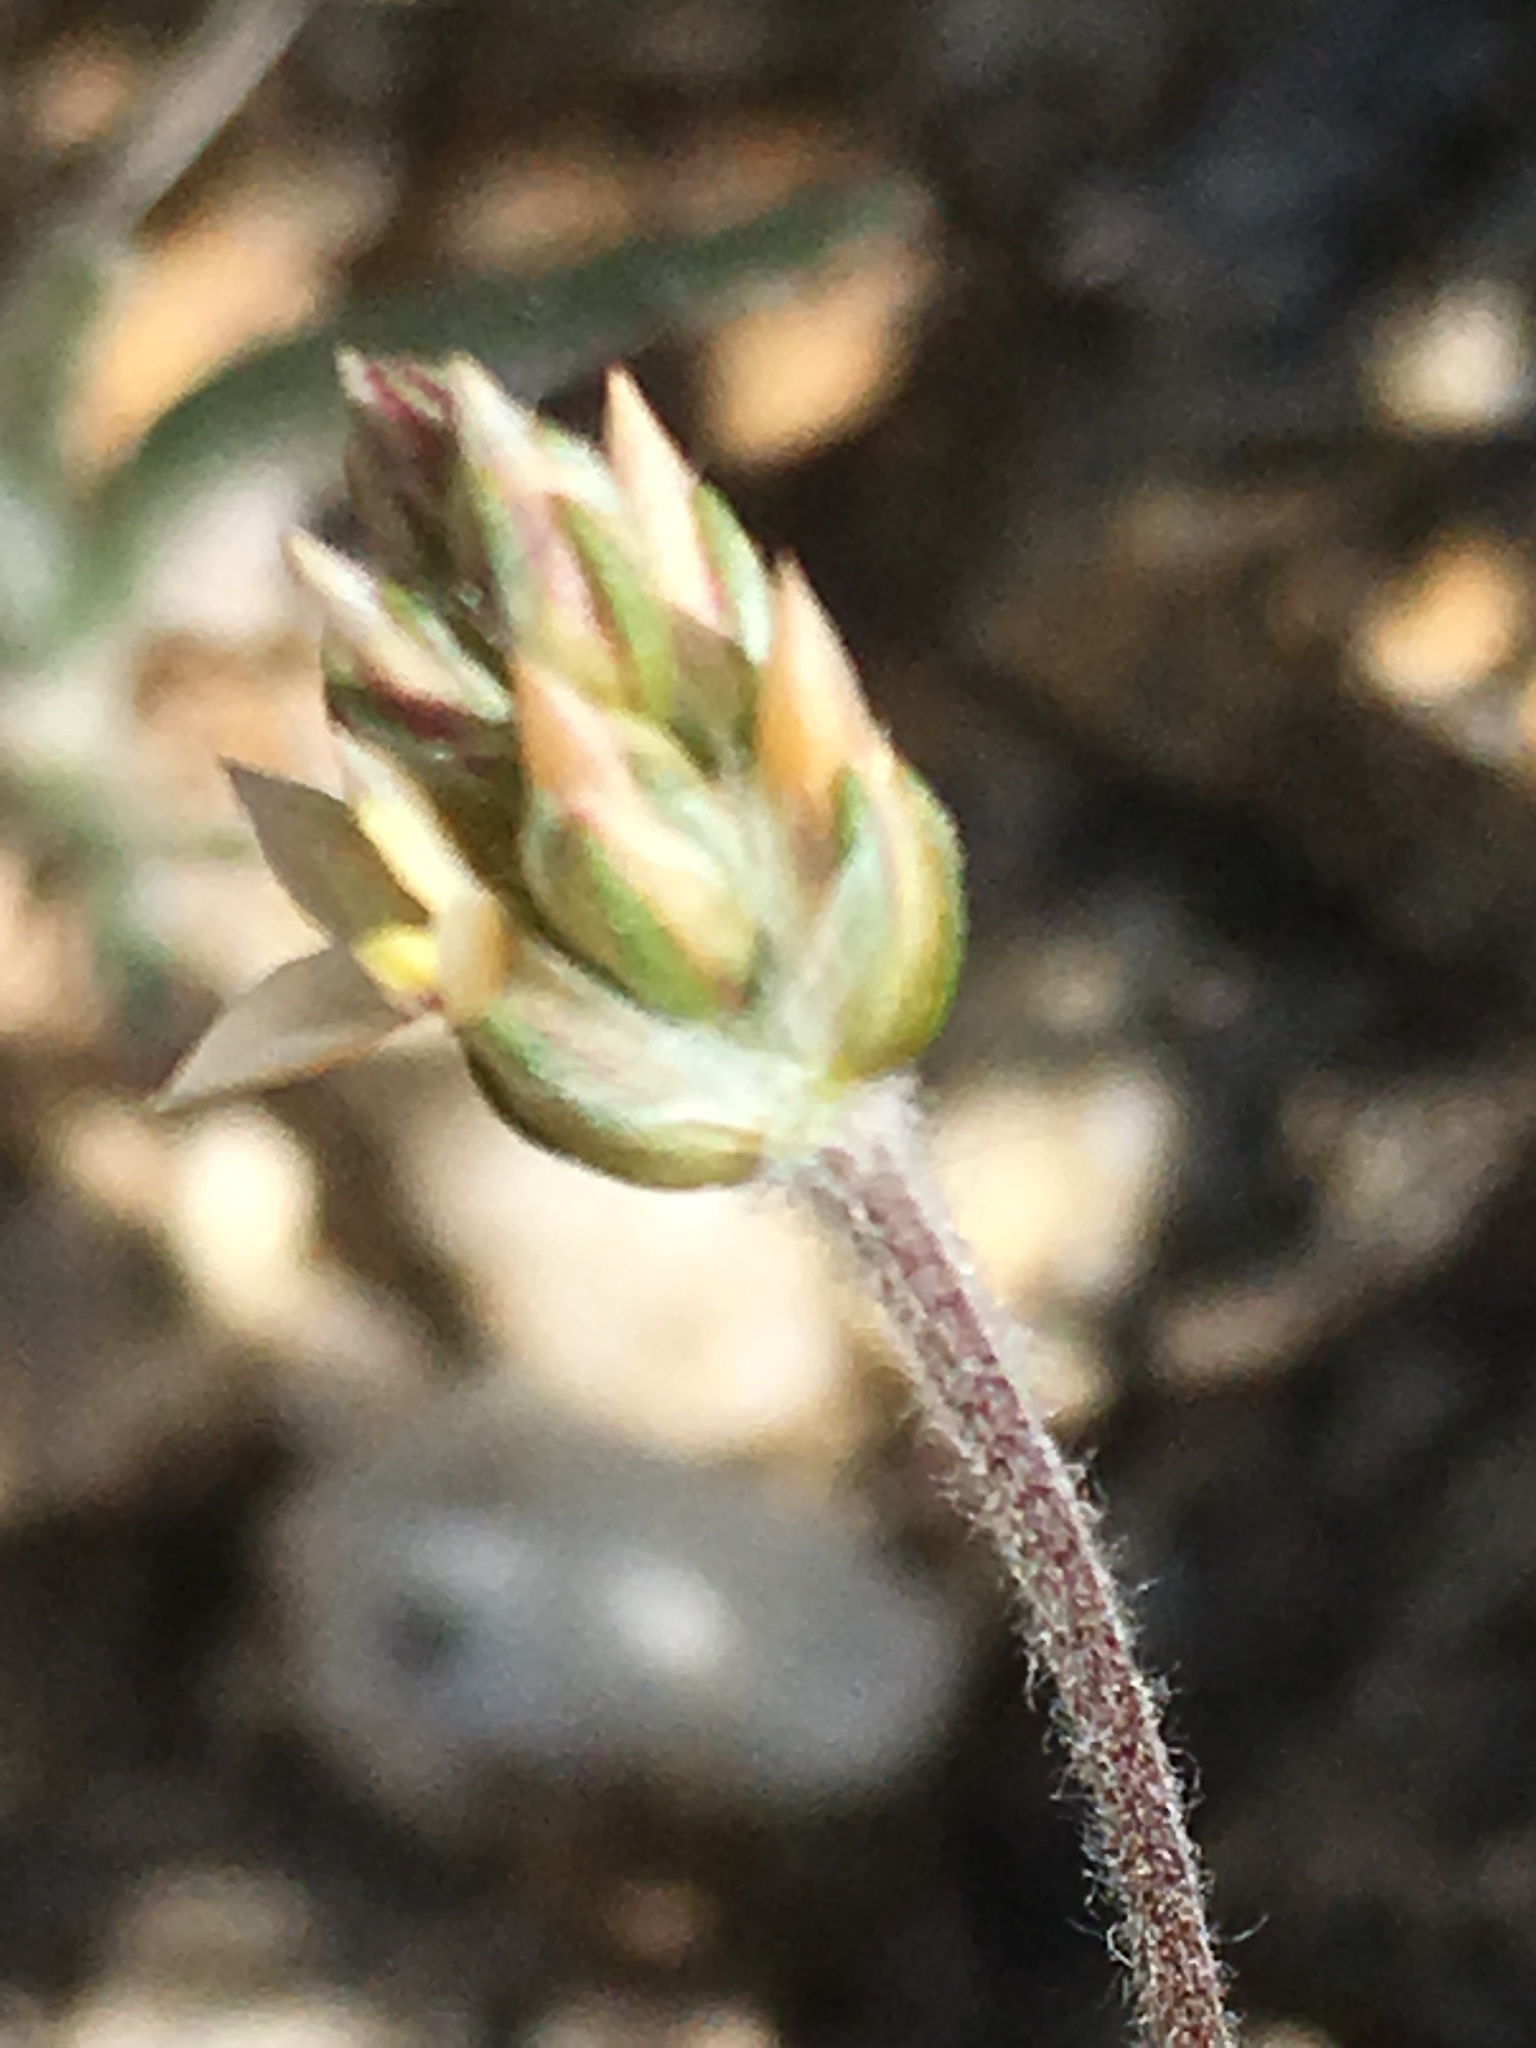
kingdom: Plantae
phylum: Tracheophyta
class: Magnoliopsida
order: Lamiales
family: Plantaginaceae
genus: Plantago
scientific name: Plantago ovata
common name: Blond plantain
